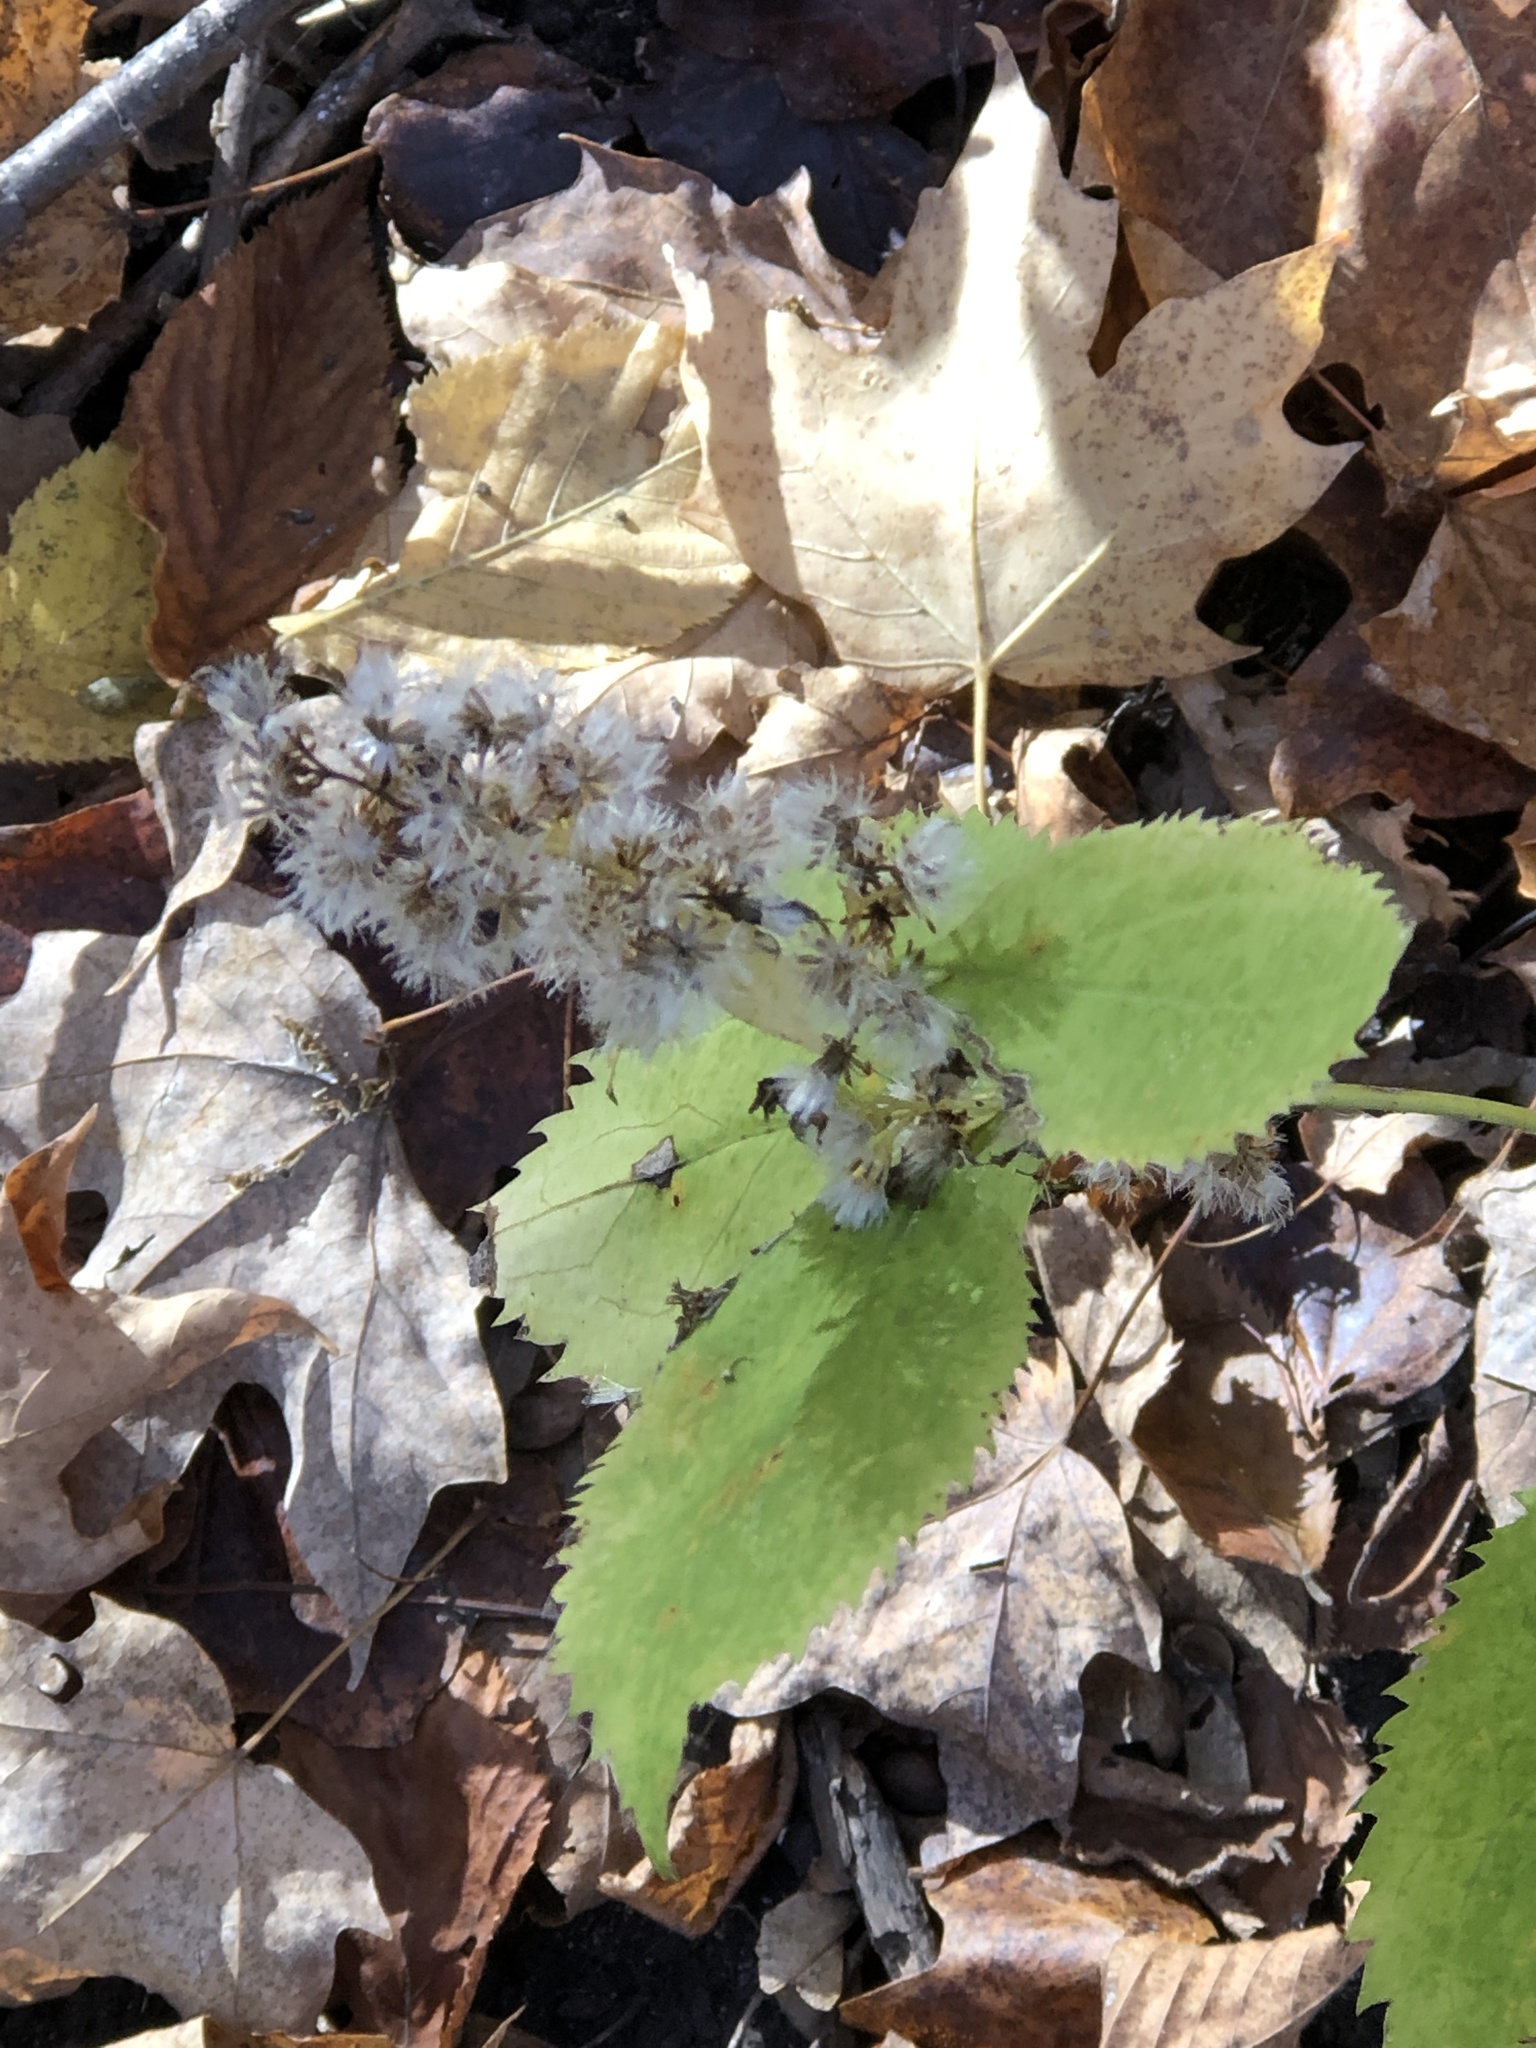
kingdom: Plantae
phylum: Tracheophyta
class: Magnoliopsida
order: Asterales
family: Asteraceae
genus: Solidago
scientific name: Solidago flexicaulis
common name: Zig-zag goldenrod
